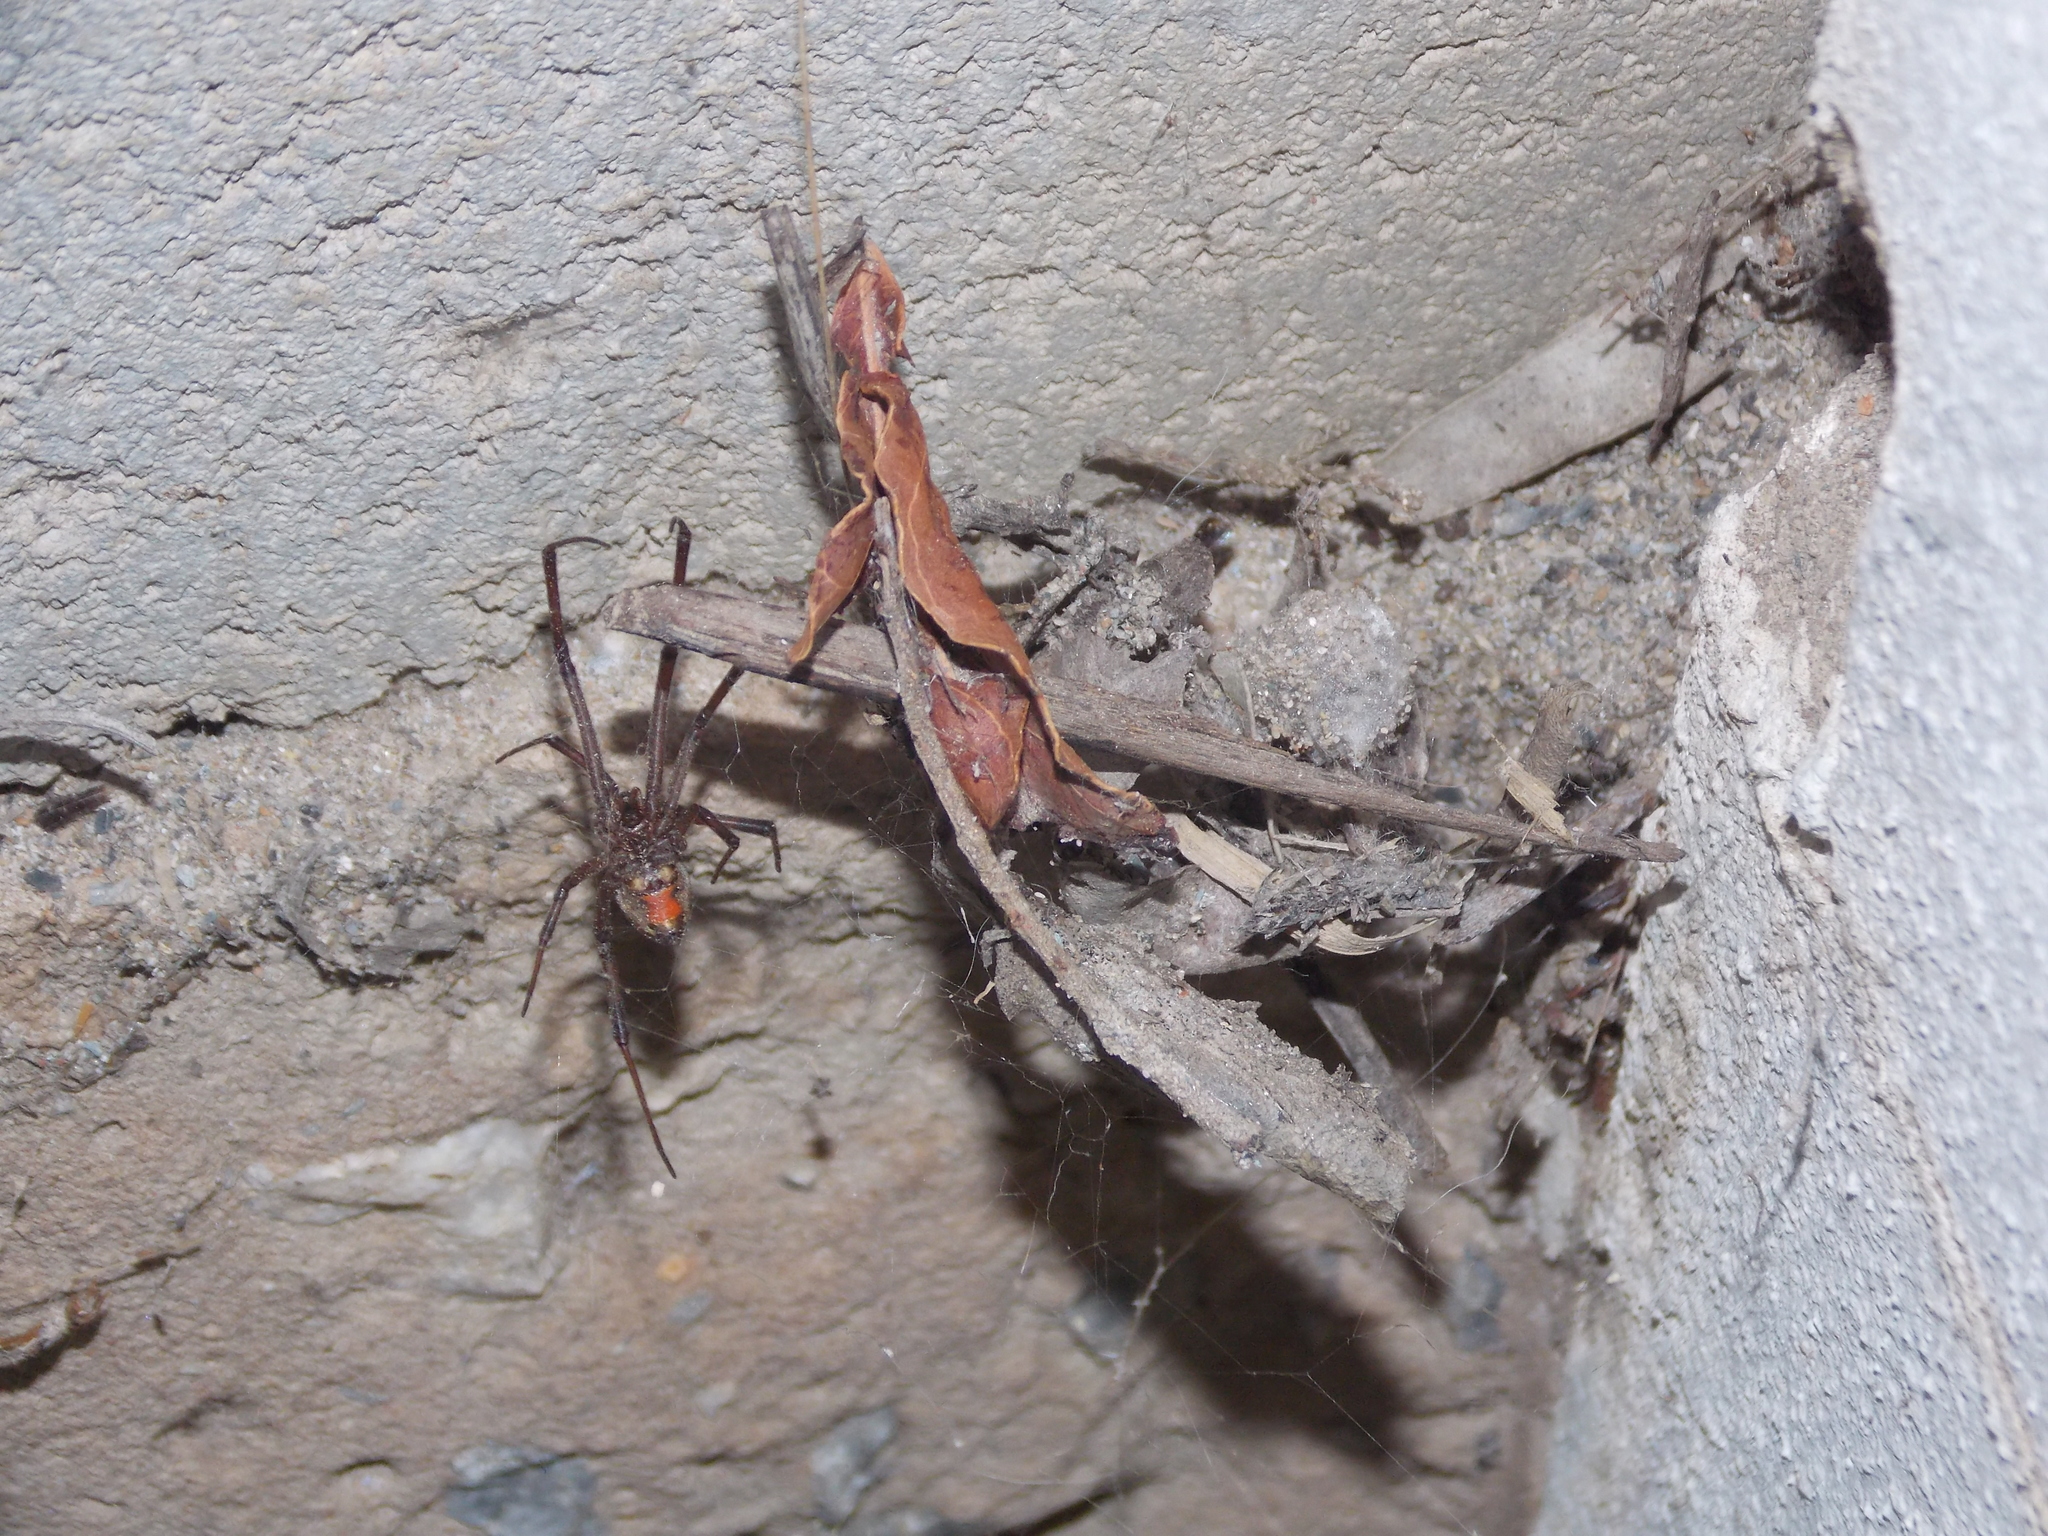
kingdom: Animalia
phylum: Arthropoda
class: Arachnida
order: Araneae
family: Theridiidae
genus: Latrodectus
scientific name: Latrodectus geometricus
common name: Brown widow spider
